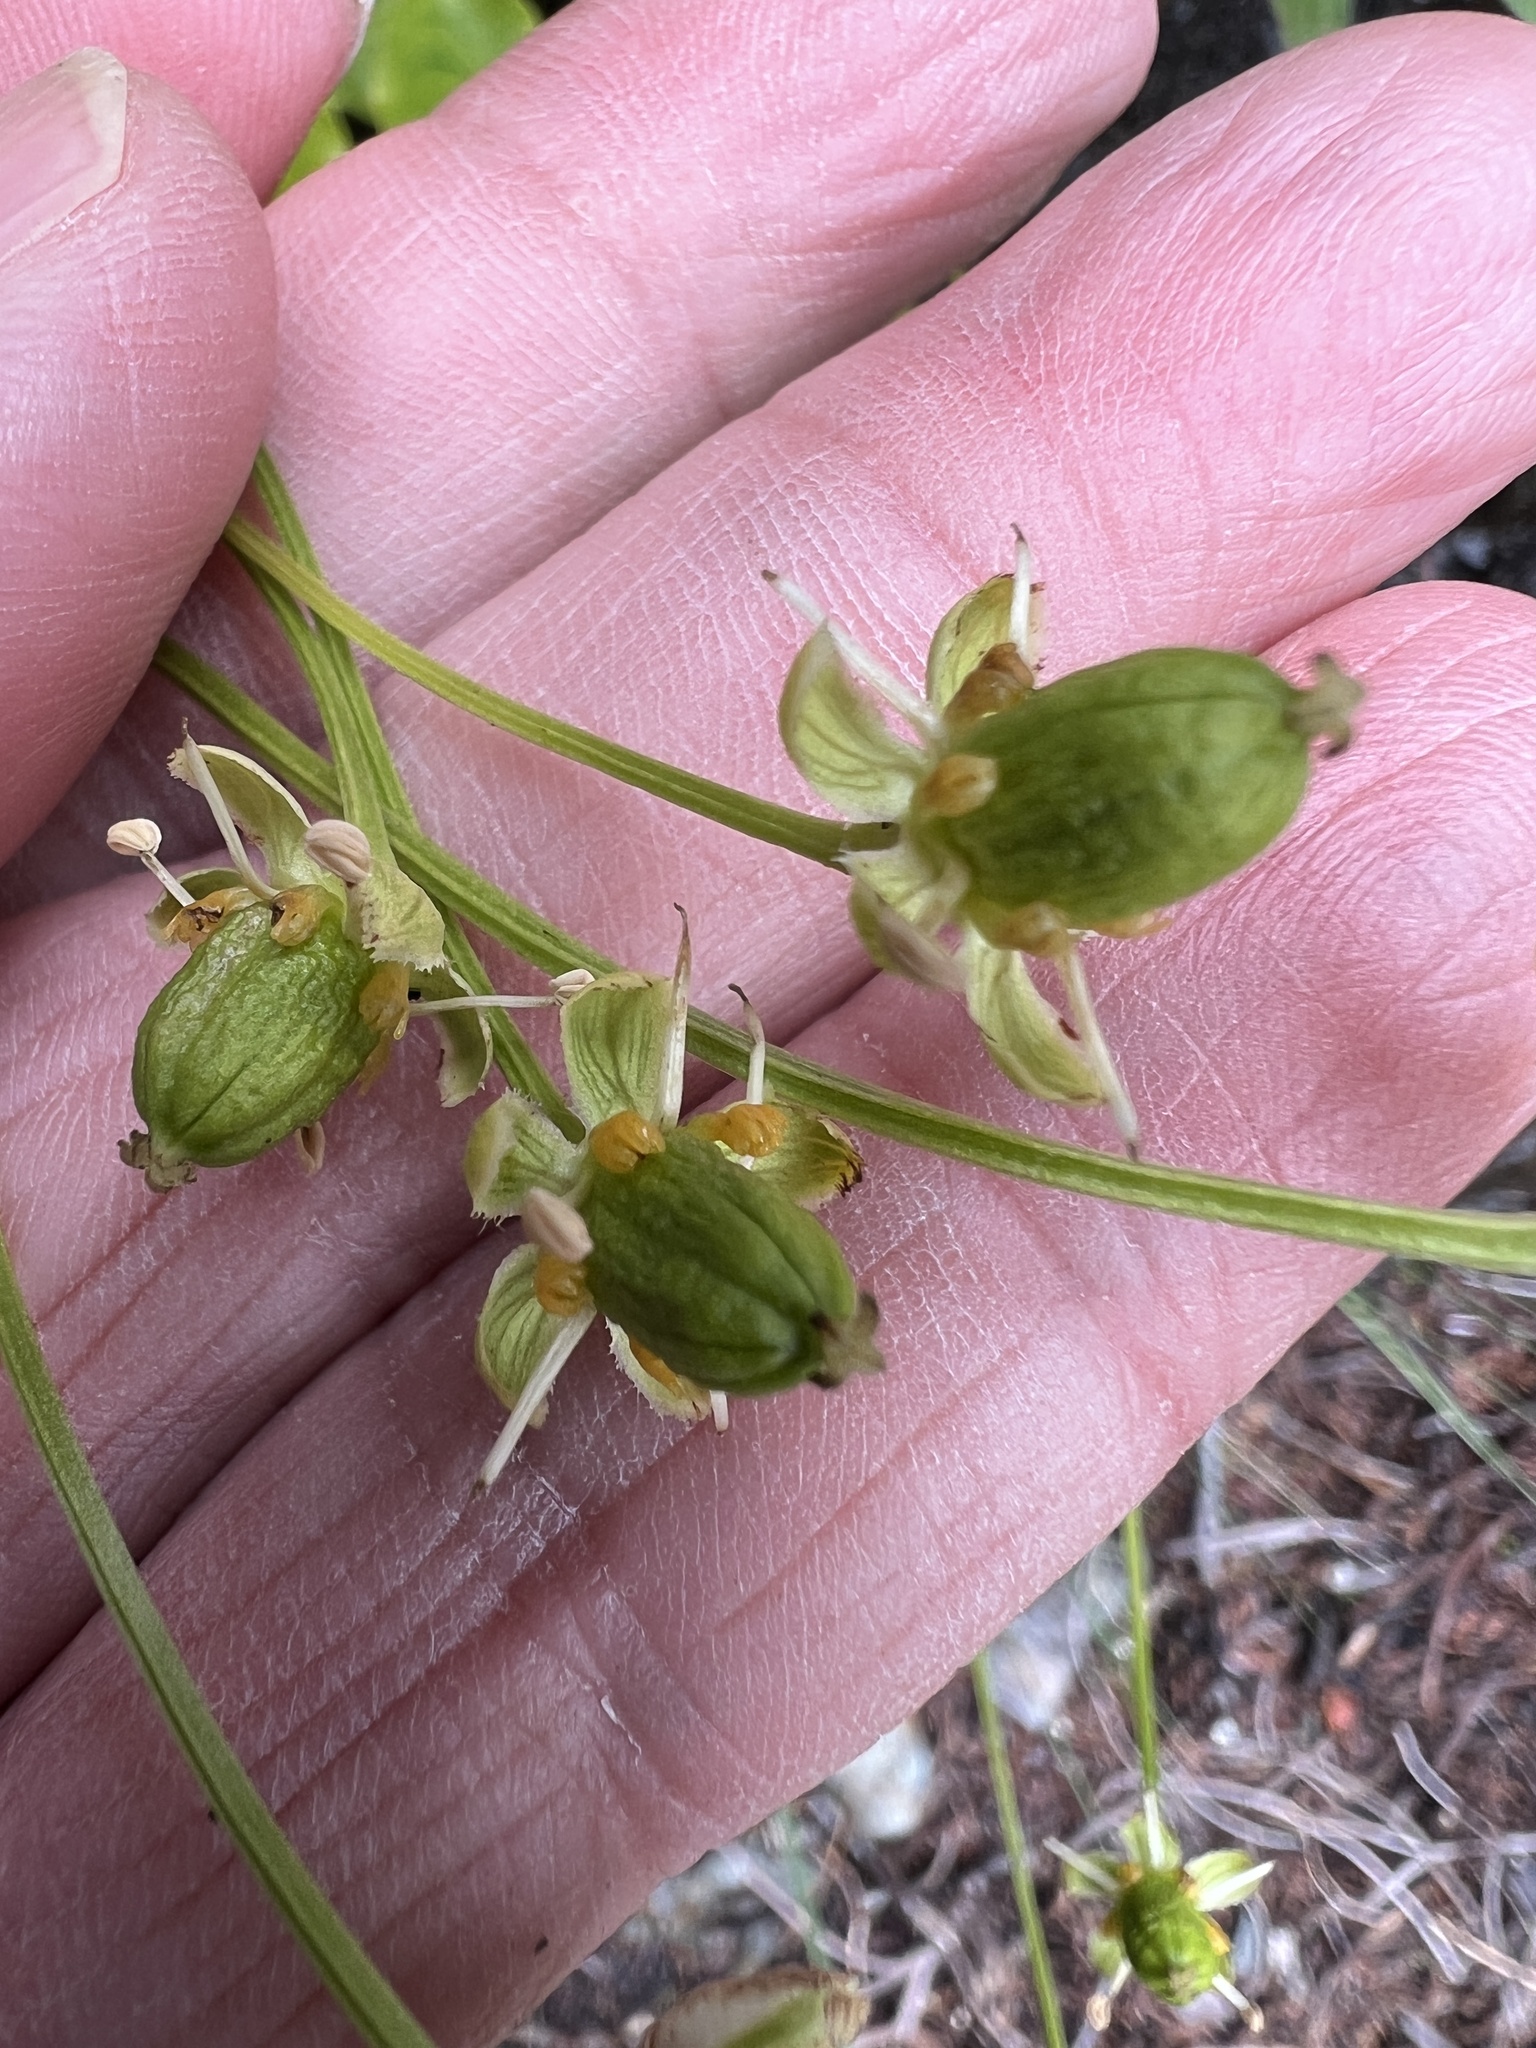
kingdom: Plantae
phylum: Tracheophyta
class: Magnoliopsida
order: Celastrales
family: Parnassiaceae
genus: Parnassia
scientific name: Parnassia fimbriata
